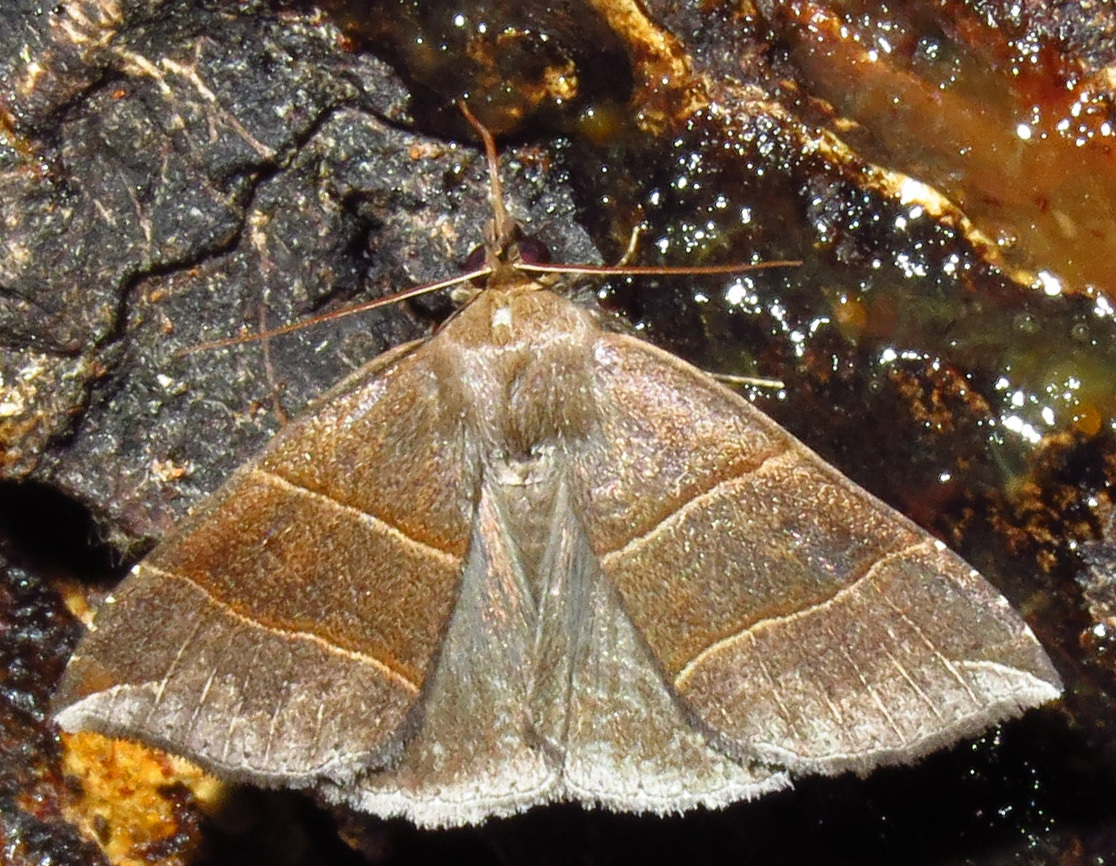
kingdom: Animalia
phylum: Arthropoda
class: Insecta
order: Lepidoptera
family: Erebidae
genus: Parallelia
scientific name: Parallelia bistriaris
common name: Maple looper moth
